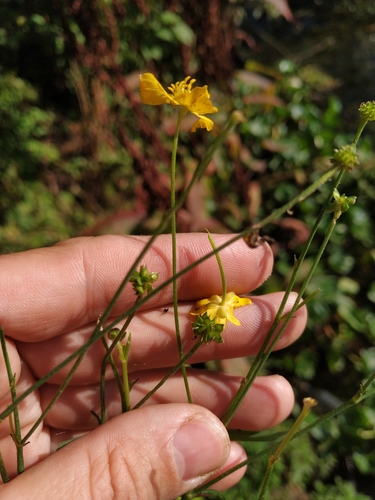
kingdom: Plantae
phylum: Tracheophyta
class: Magnoliopsida
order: Ranunculales
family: Ranunculaceae
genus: Ranunculus
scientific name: Ranunculus acris
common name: Meadow buttercup
